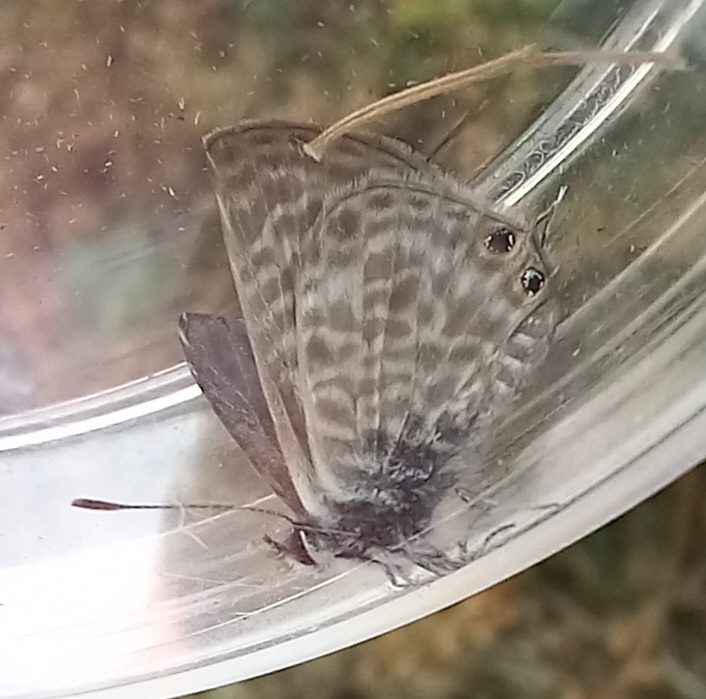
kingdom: Animalia
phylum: Arthropoda
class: Insecta
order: Lepidoptera
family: Lycaenidae
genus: Leptotes
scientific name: Leptotes pirithous
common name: Lang's short-tailed blue
